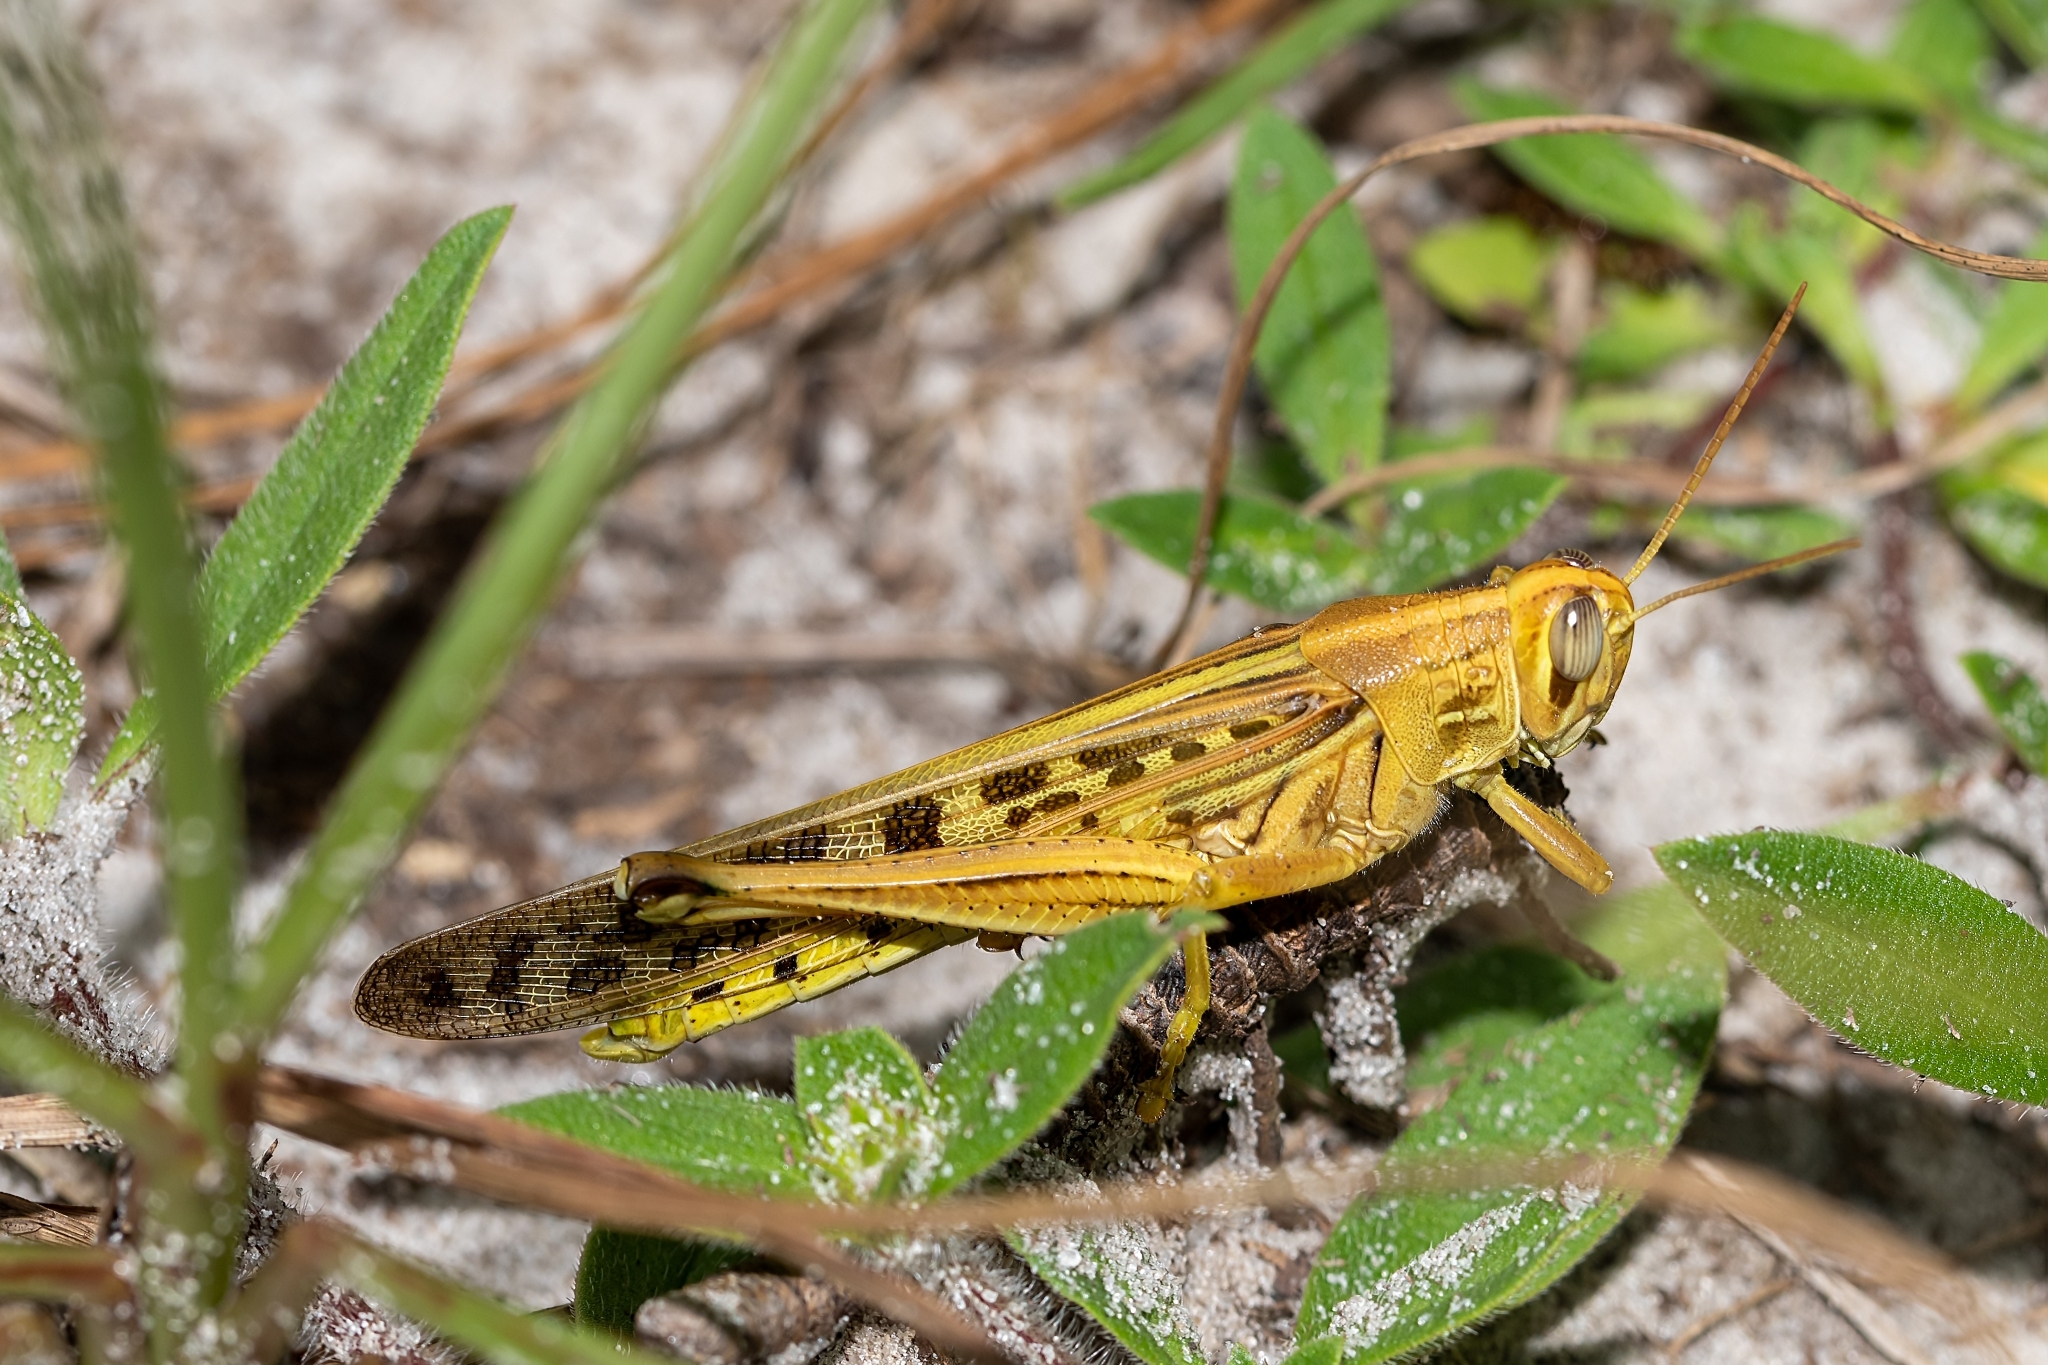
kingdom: Animalia
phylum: Arthropoda
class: Insecta
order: Orthoptera
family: Acrididae
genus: Schistocerca
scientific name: Schistocerca americana
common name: American bird locust
